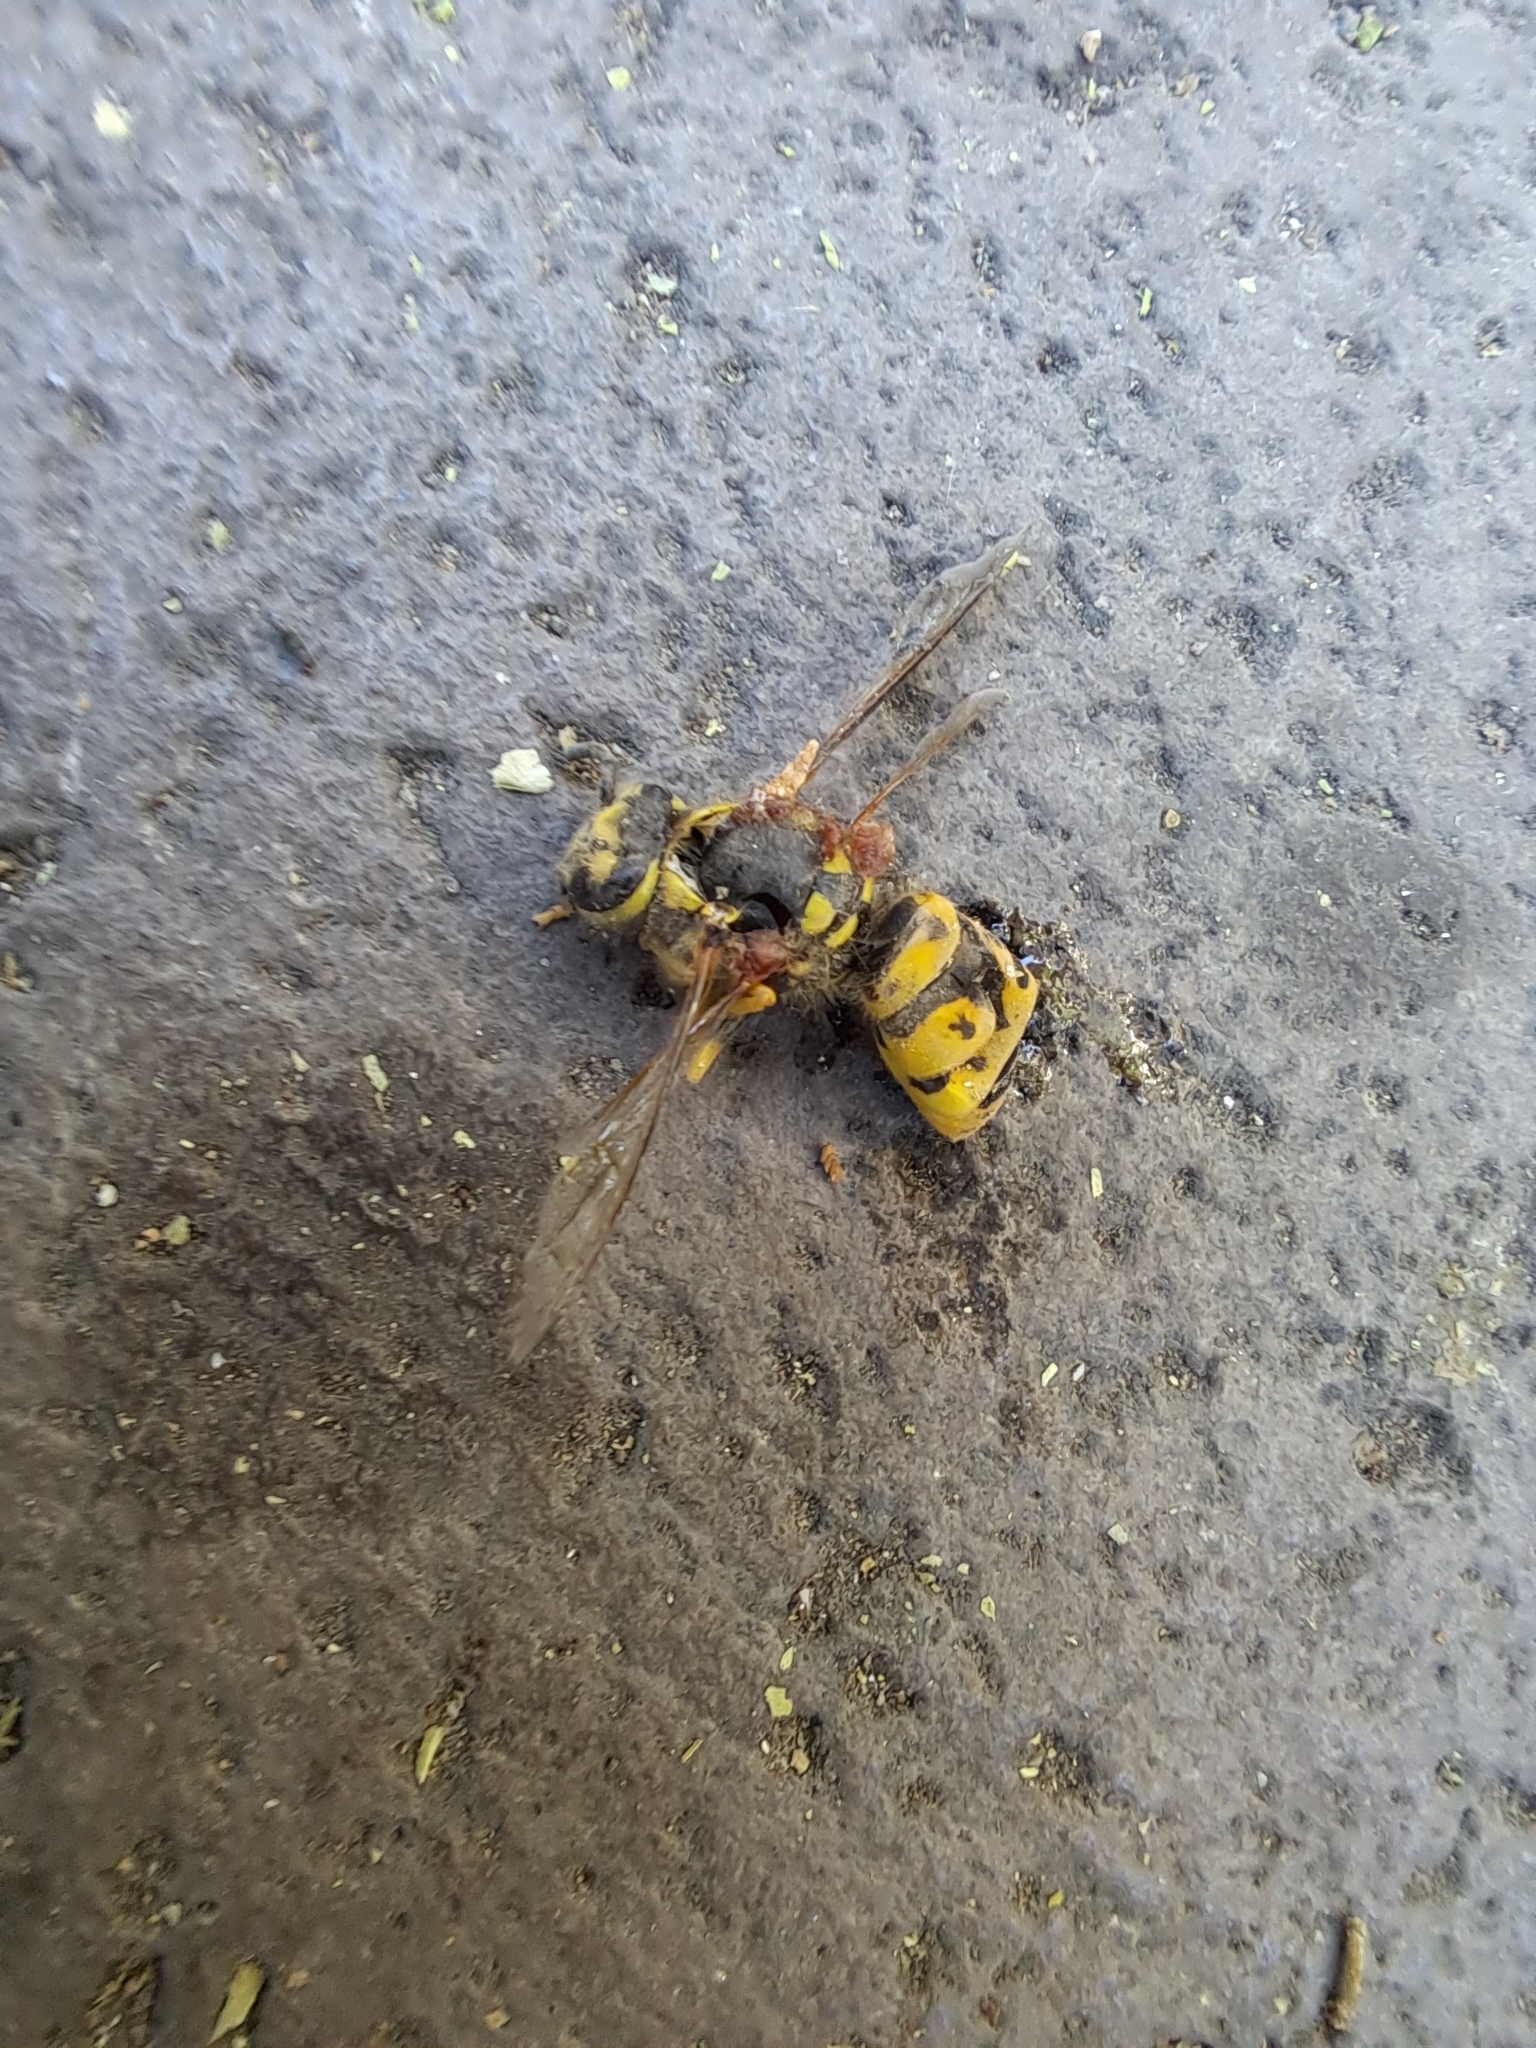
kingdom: Animalia
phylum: Arthropoda
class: Insecta
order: Hymenoptera
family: Vespidae
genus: Vespula
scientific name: Vespula germanica
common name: German wasp
